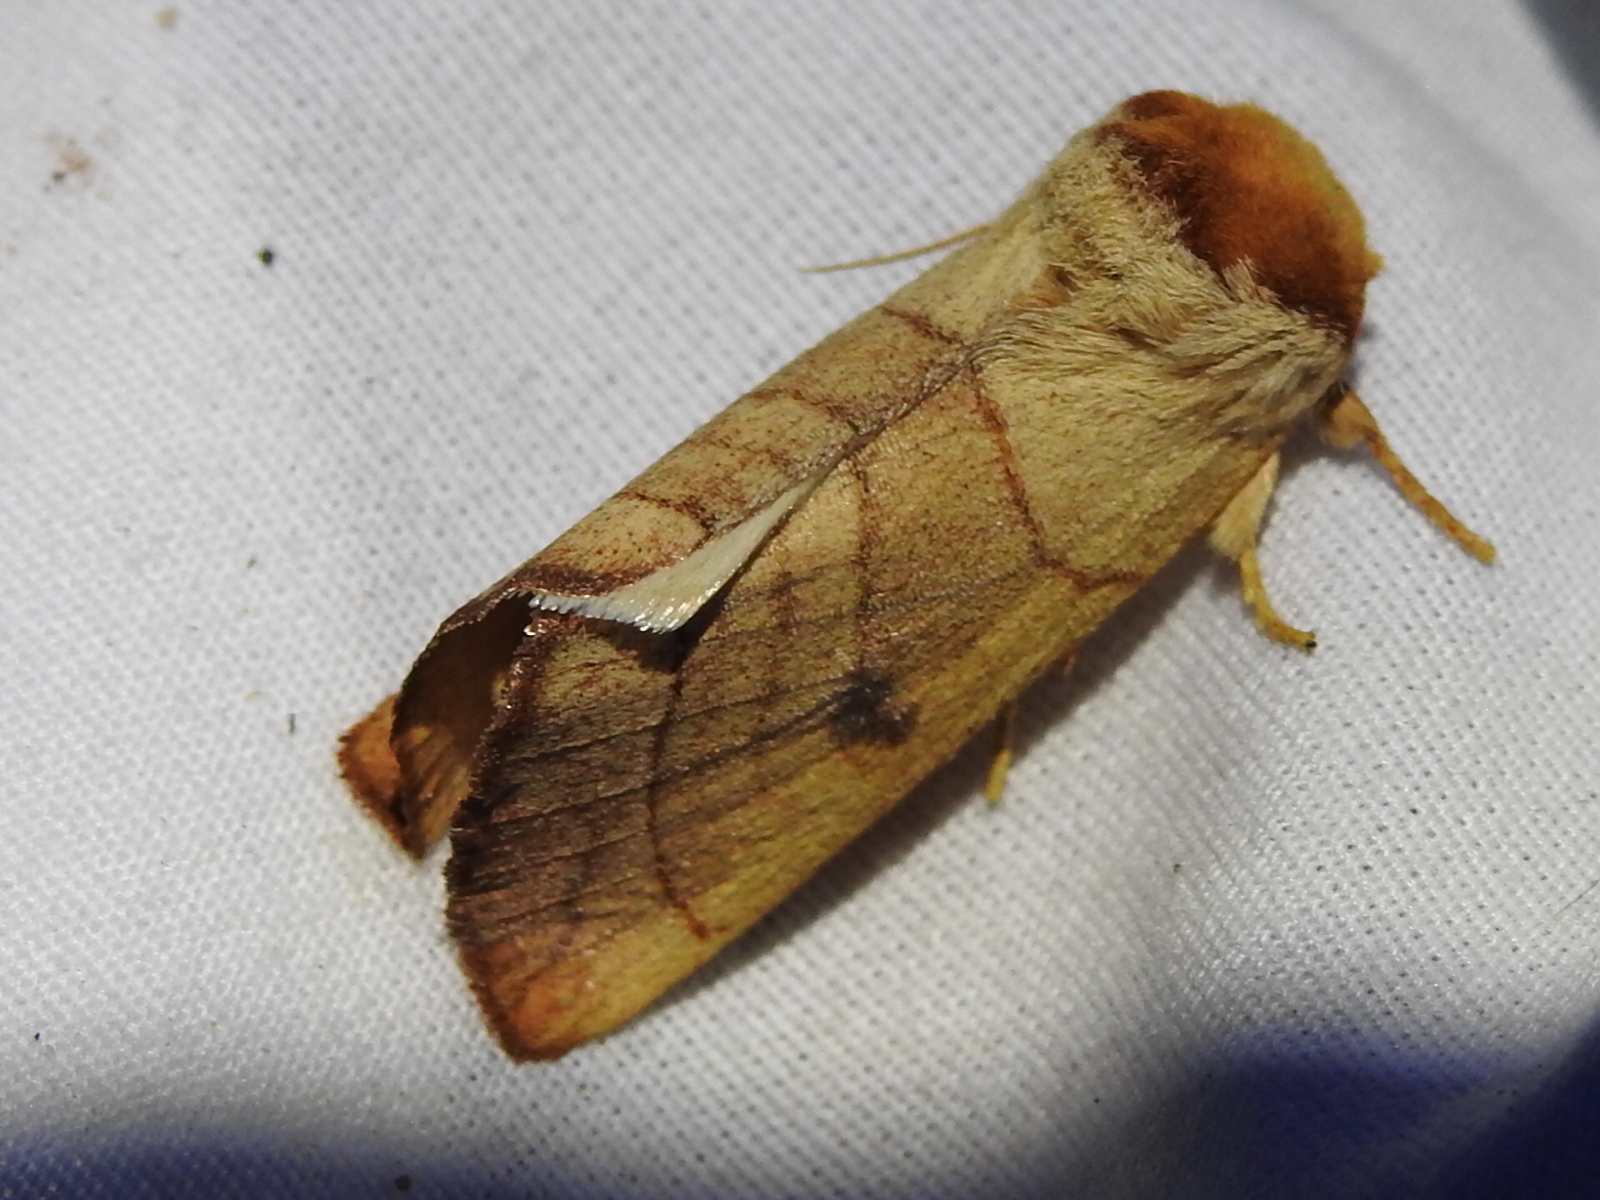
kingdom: Animalia
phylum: Arthropoda
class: Insecta
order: Lepidoptera
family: Notodontidae
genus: Datana
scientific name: Datana perspicua
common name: Spotted datana
